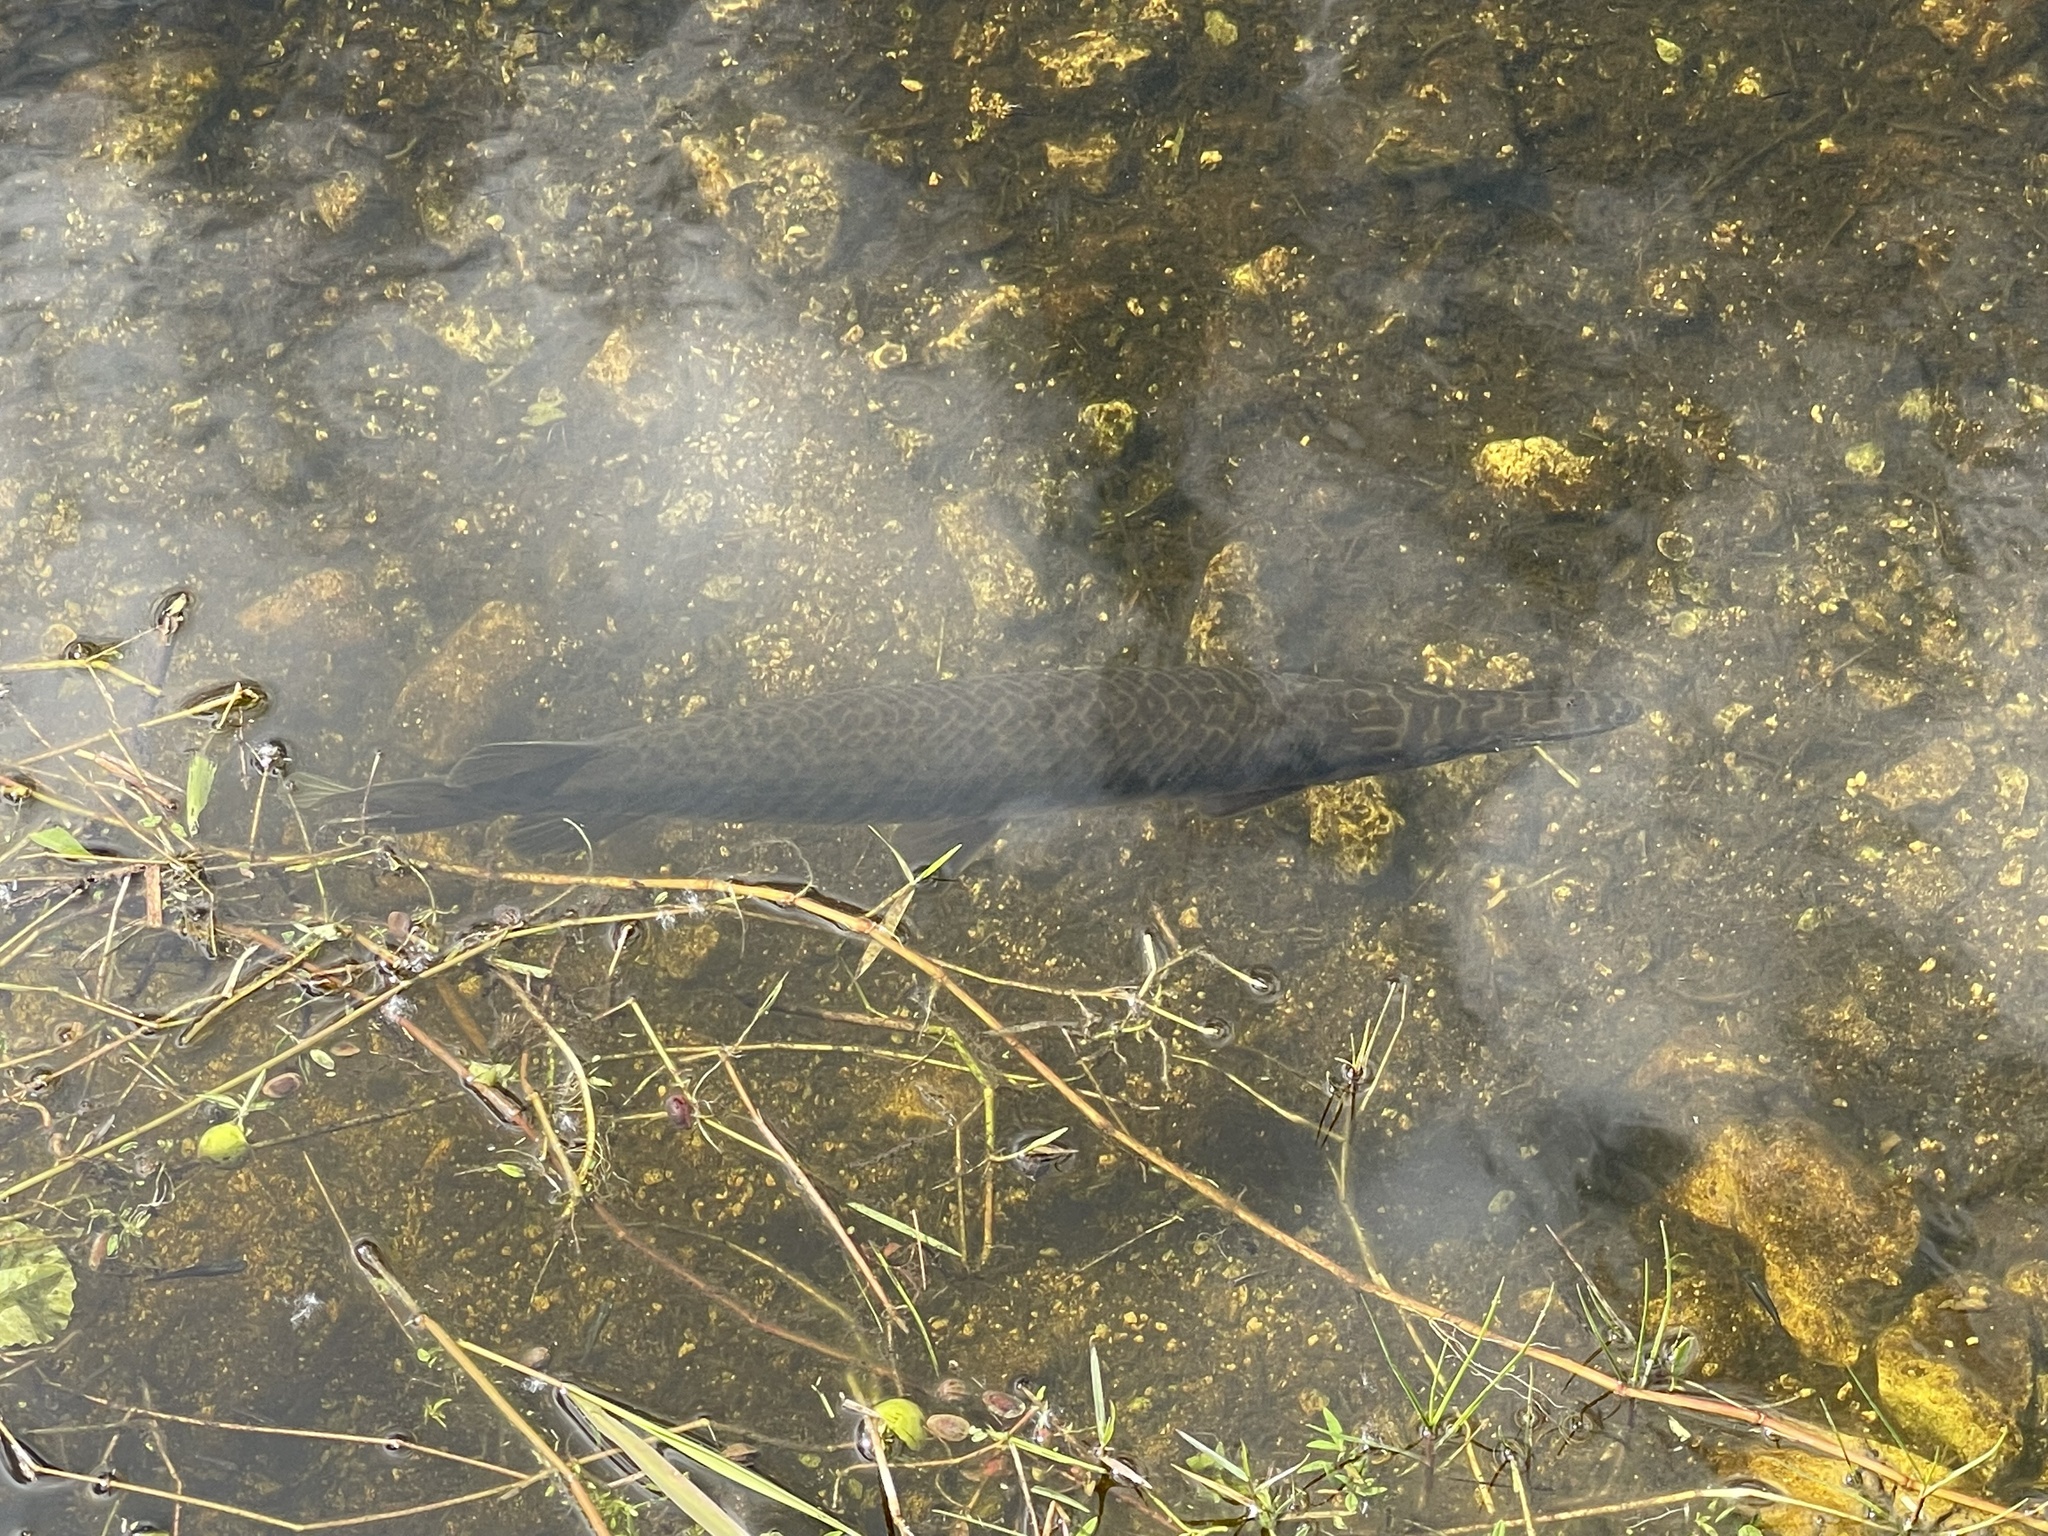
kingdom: Animalia
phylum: Chordata
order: Lepisosteiformes
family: Lepisosteidae
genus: Lepisosteus
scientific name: Lepisosteus platyrhincus
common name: Florida gar
